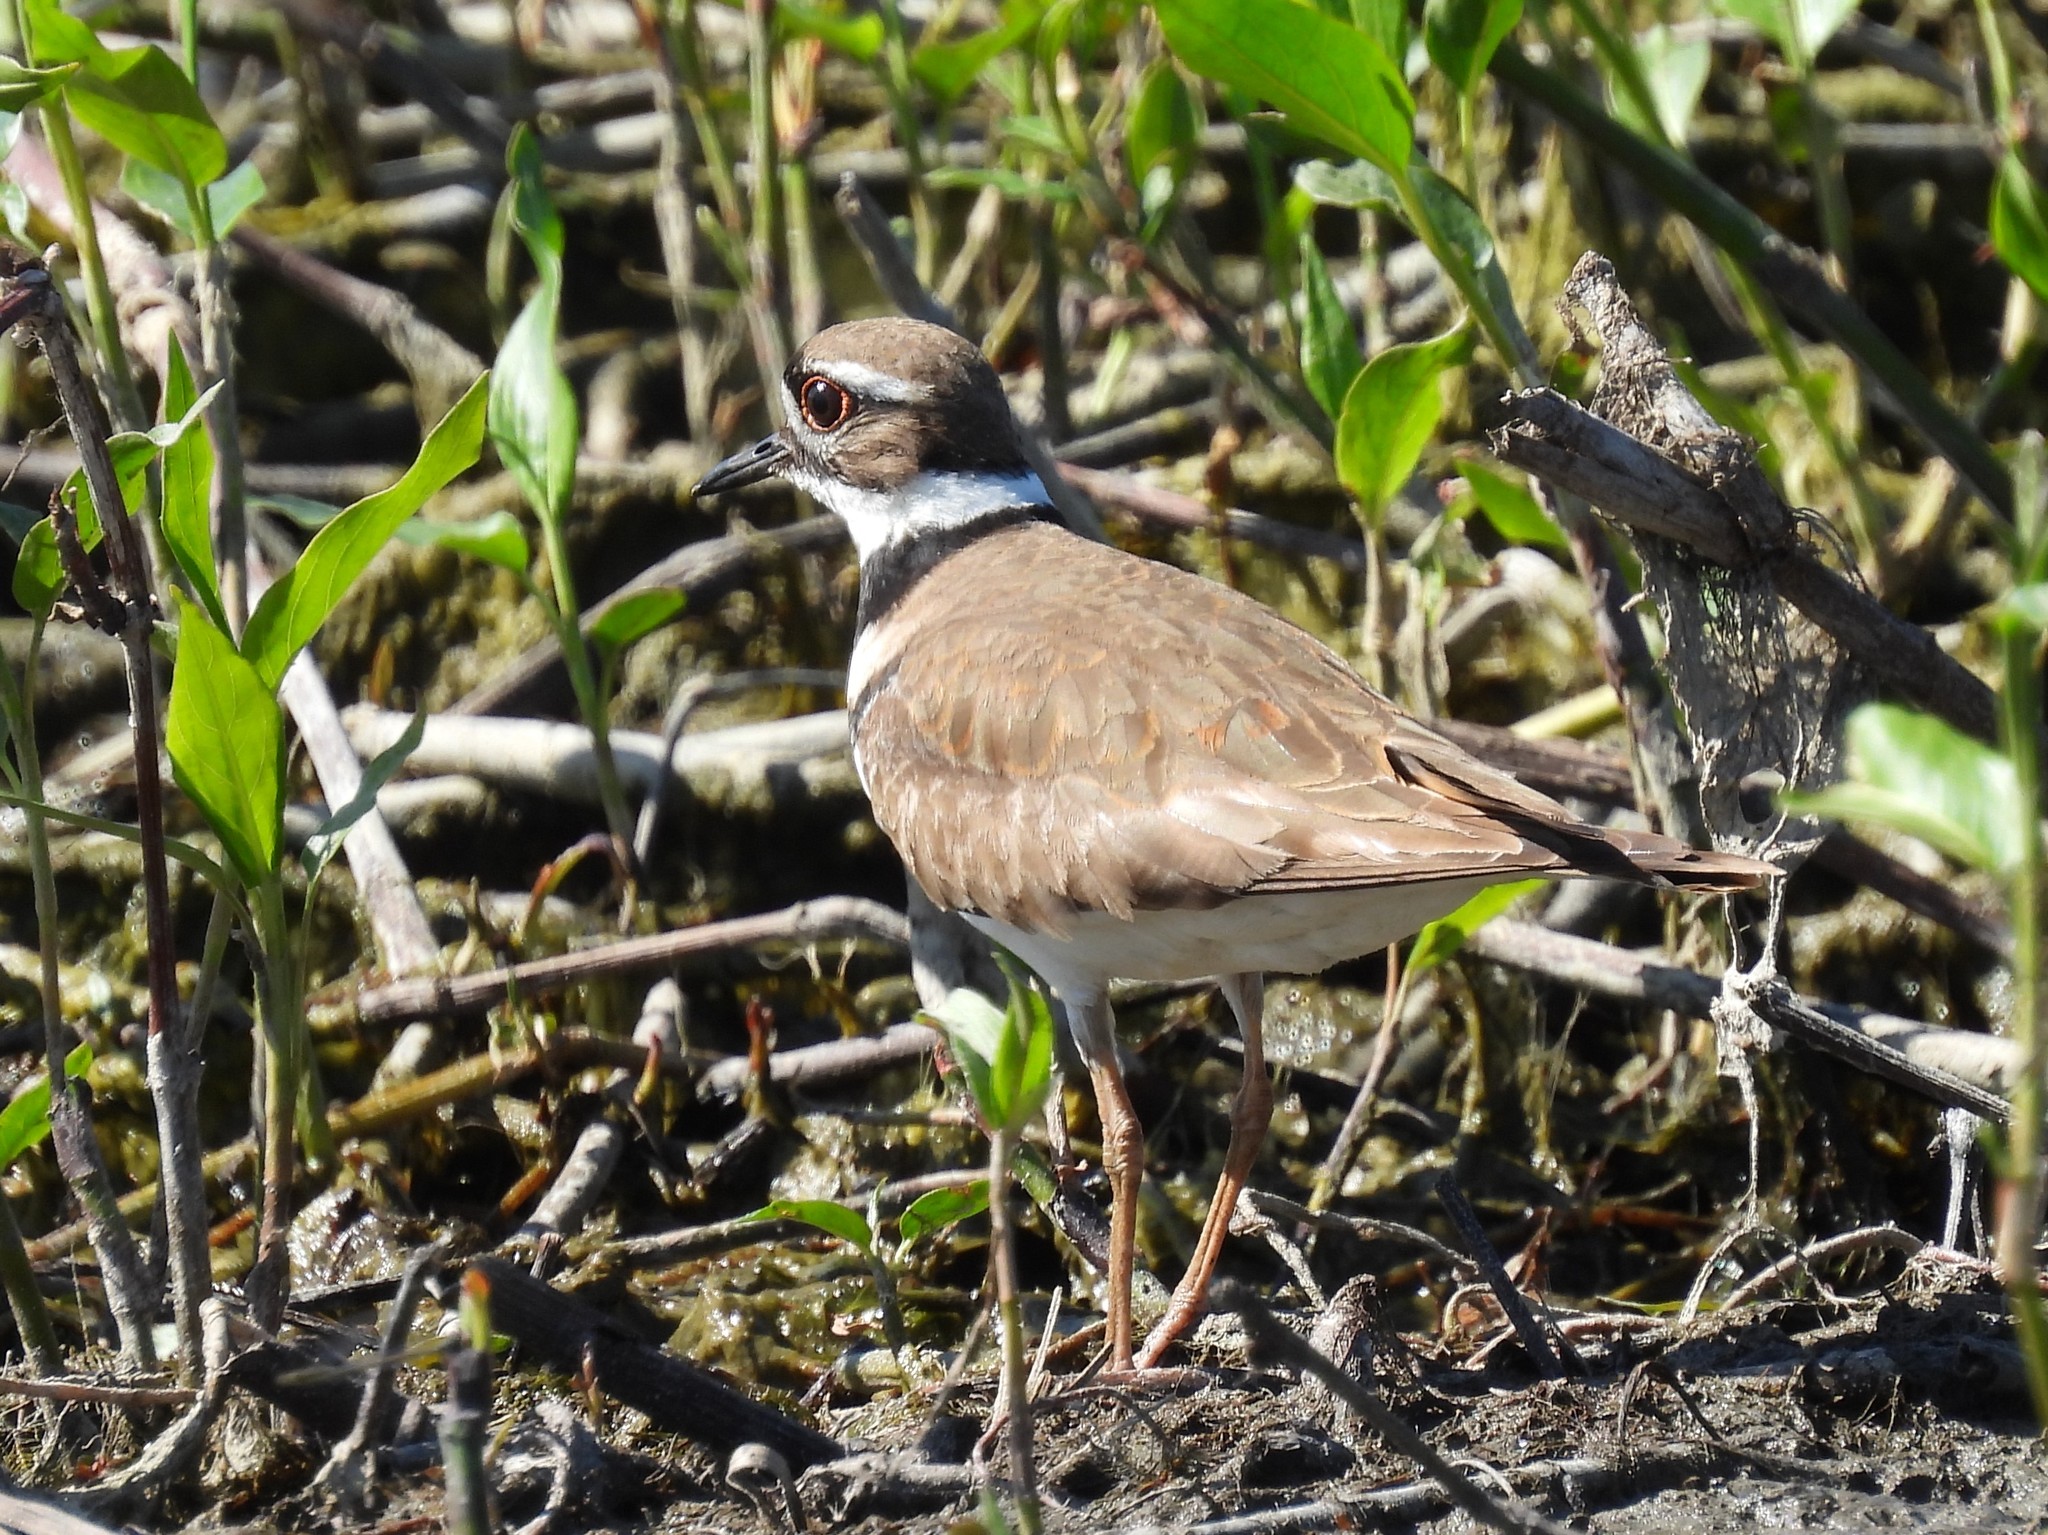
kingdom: Animalia
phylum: Chordata
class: Aves
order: Charadriiformes
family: Charadriidae
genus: Charadrius
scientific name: Charadrius vociferus
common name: Killdeer
